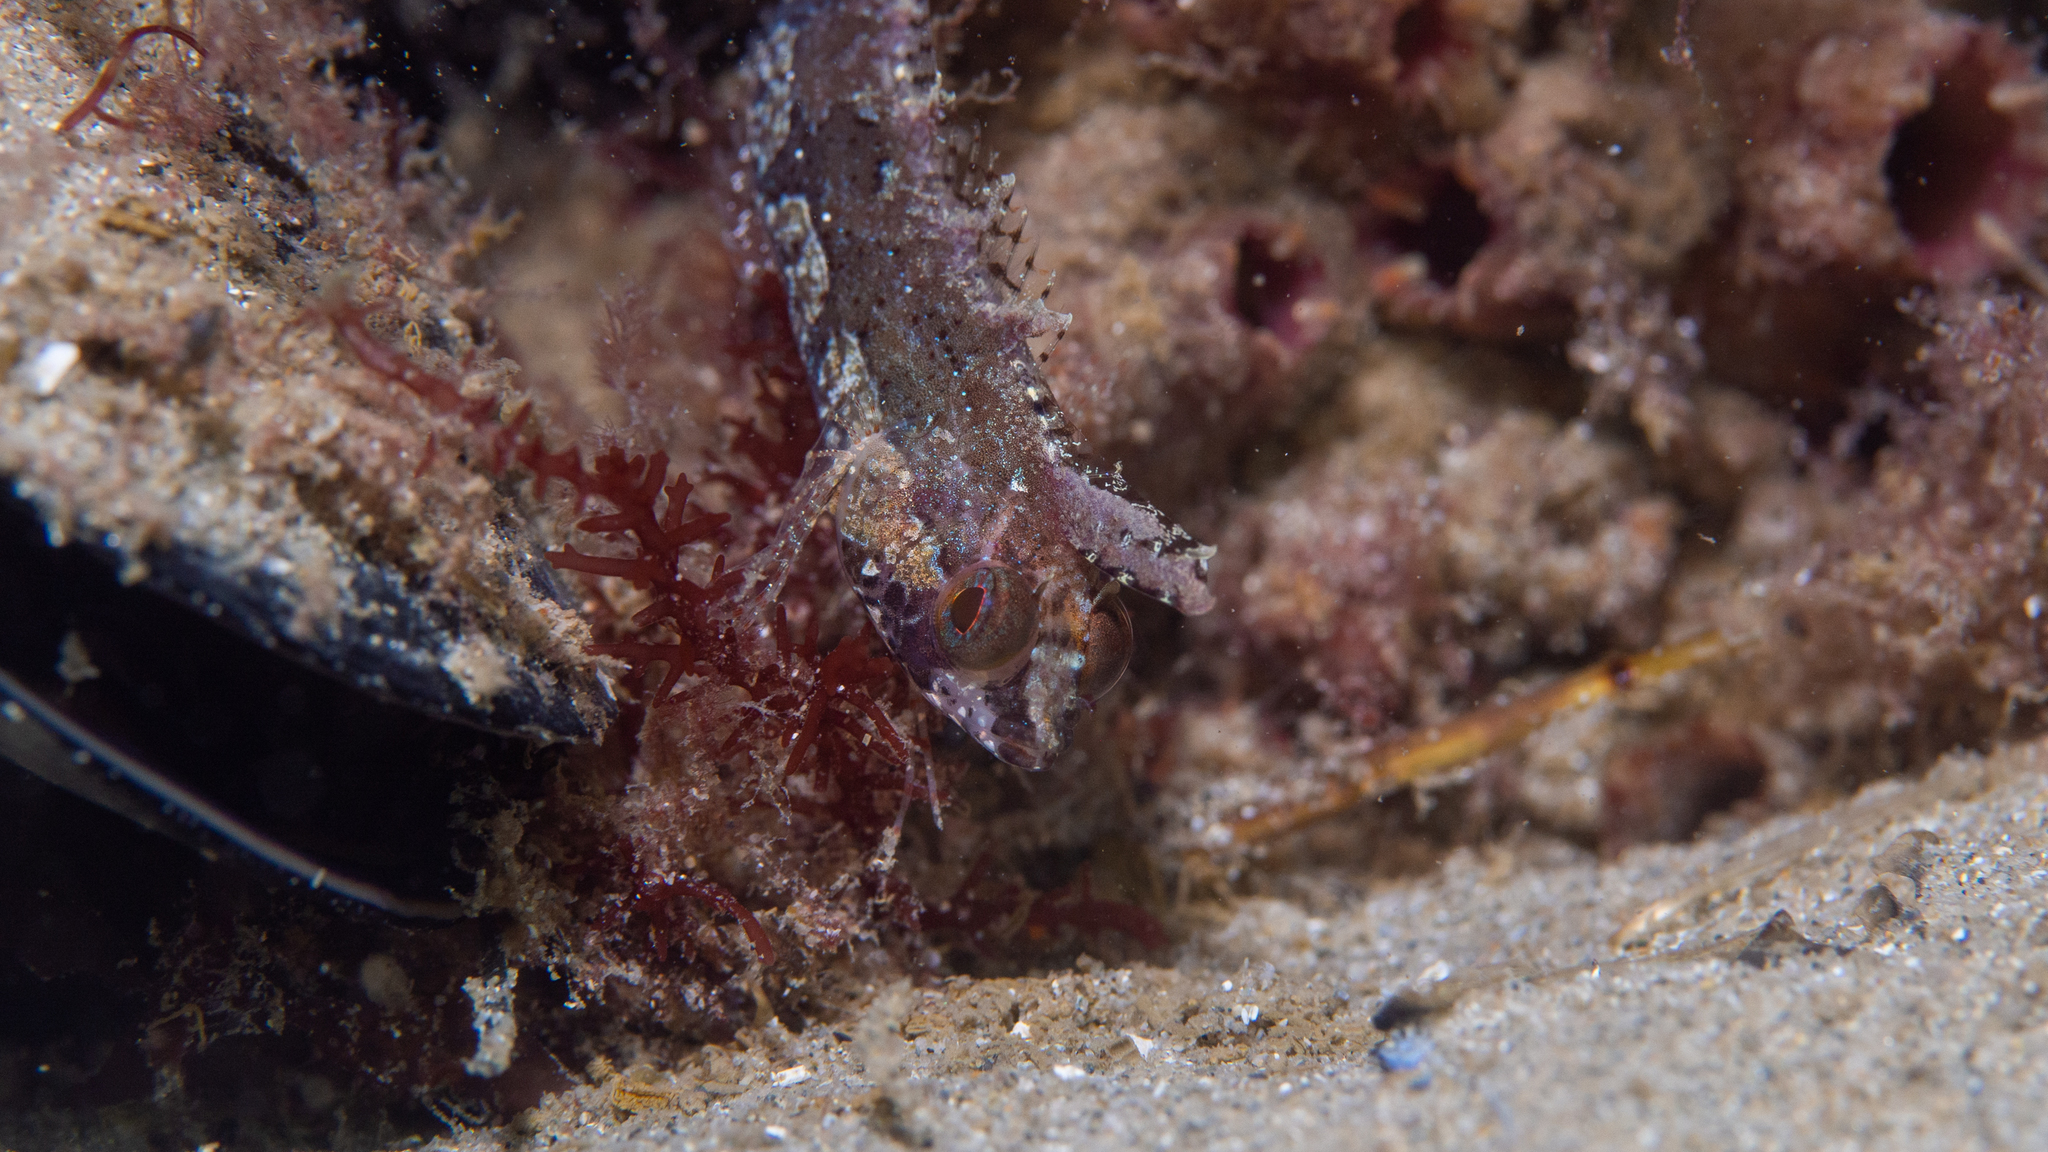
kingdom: Animalia
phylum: Chordata
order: Perciformes
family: Clinidae
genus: Heteroclinus
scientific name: Heteroclinus kuiteri
